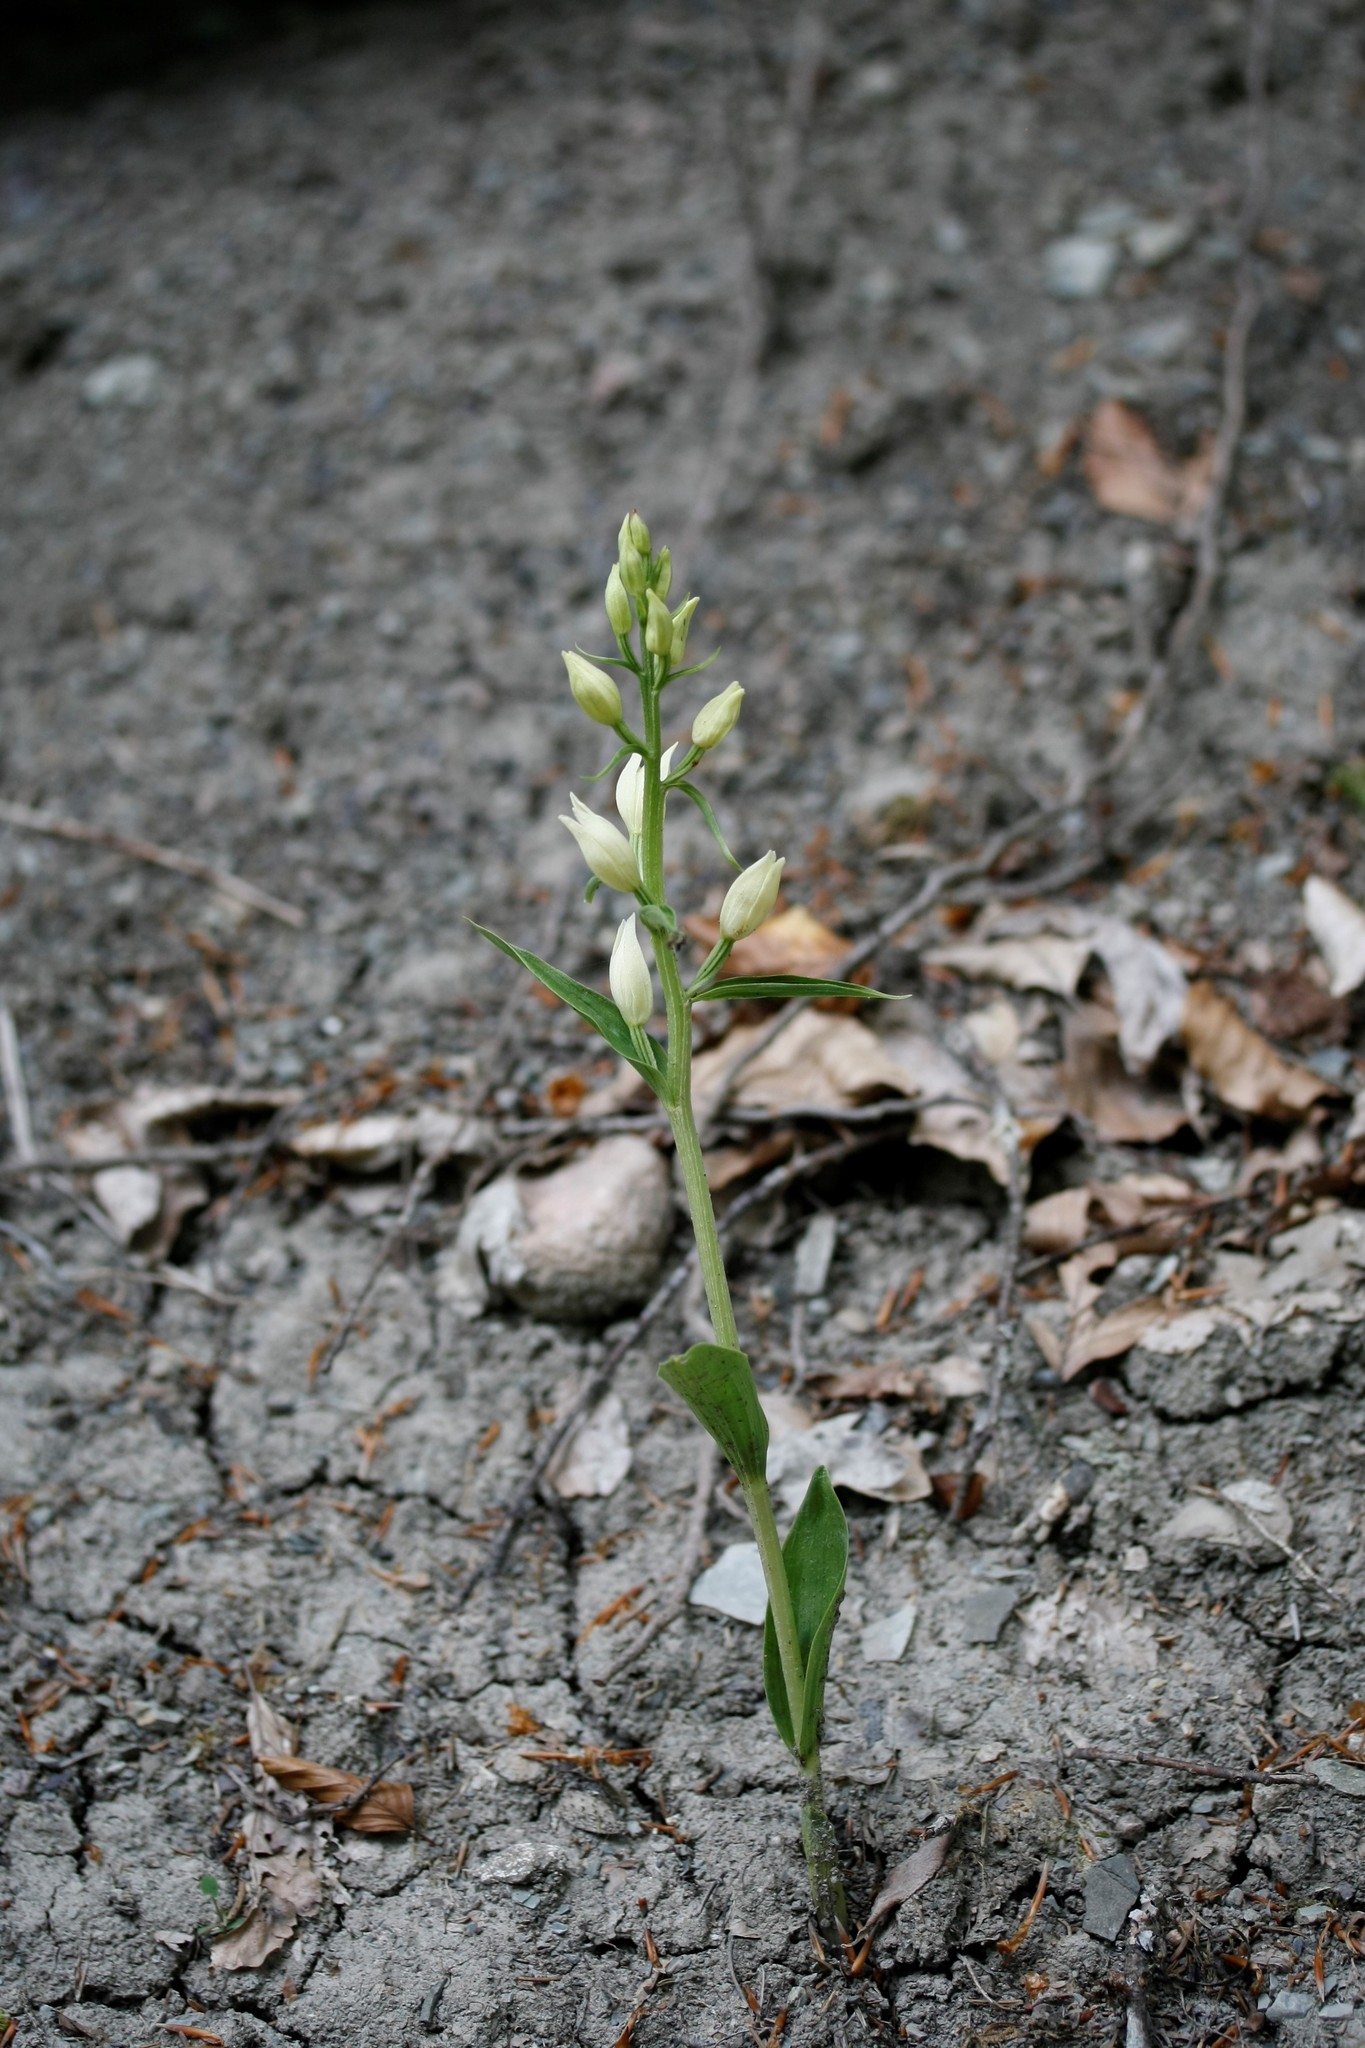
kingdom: Plantae
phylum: Tracheophyta
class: Liliopsida
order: Asparagales
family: Orchidaceae
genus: Cephalanthera
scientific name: Cephalanthera damasonium
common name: White helleborine
